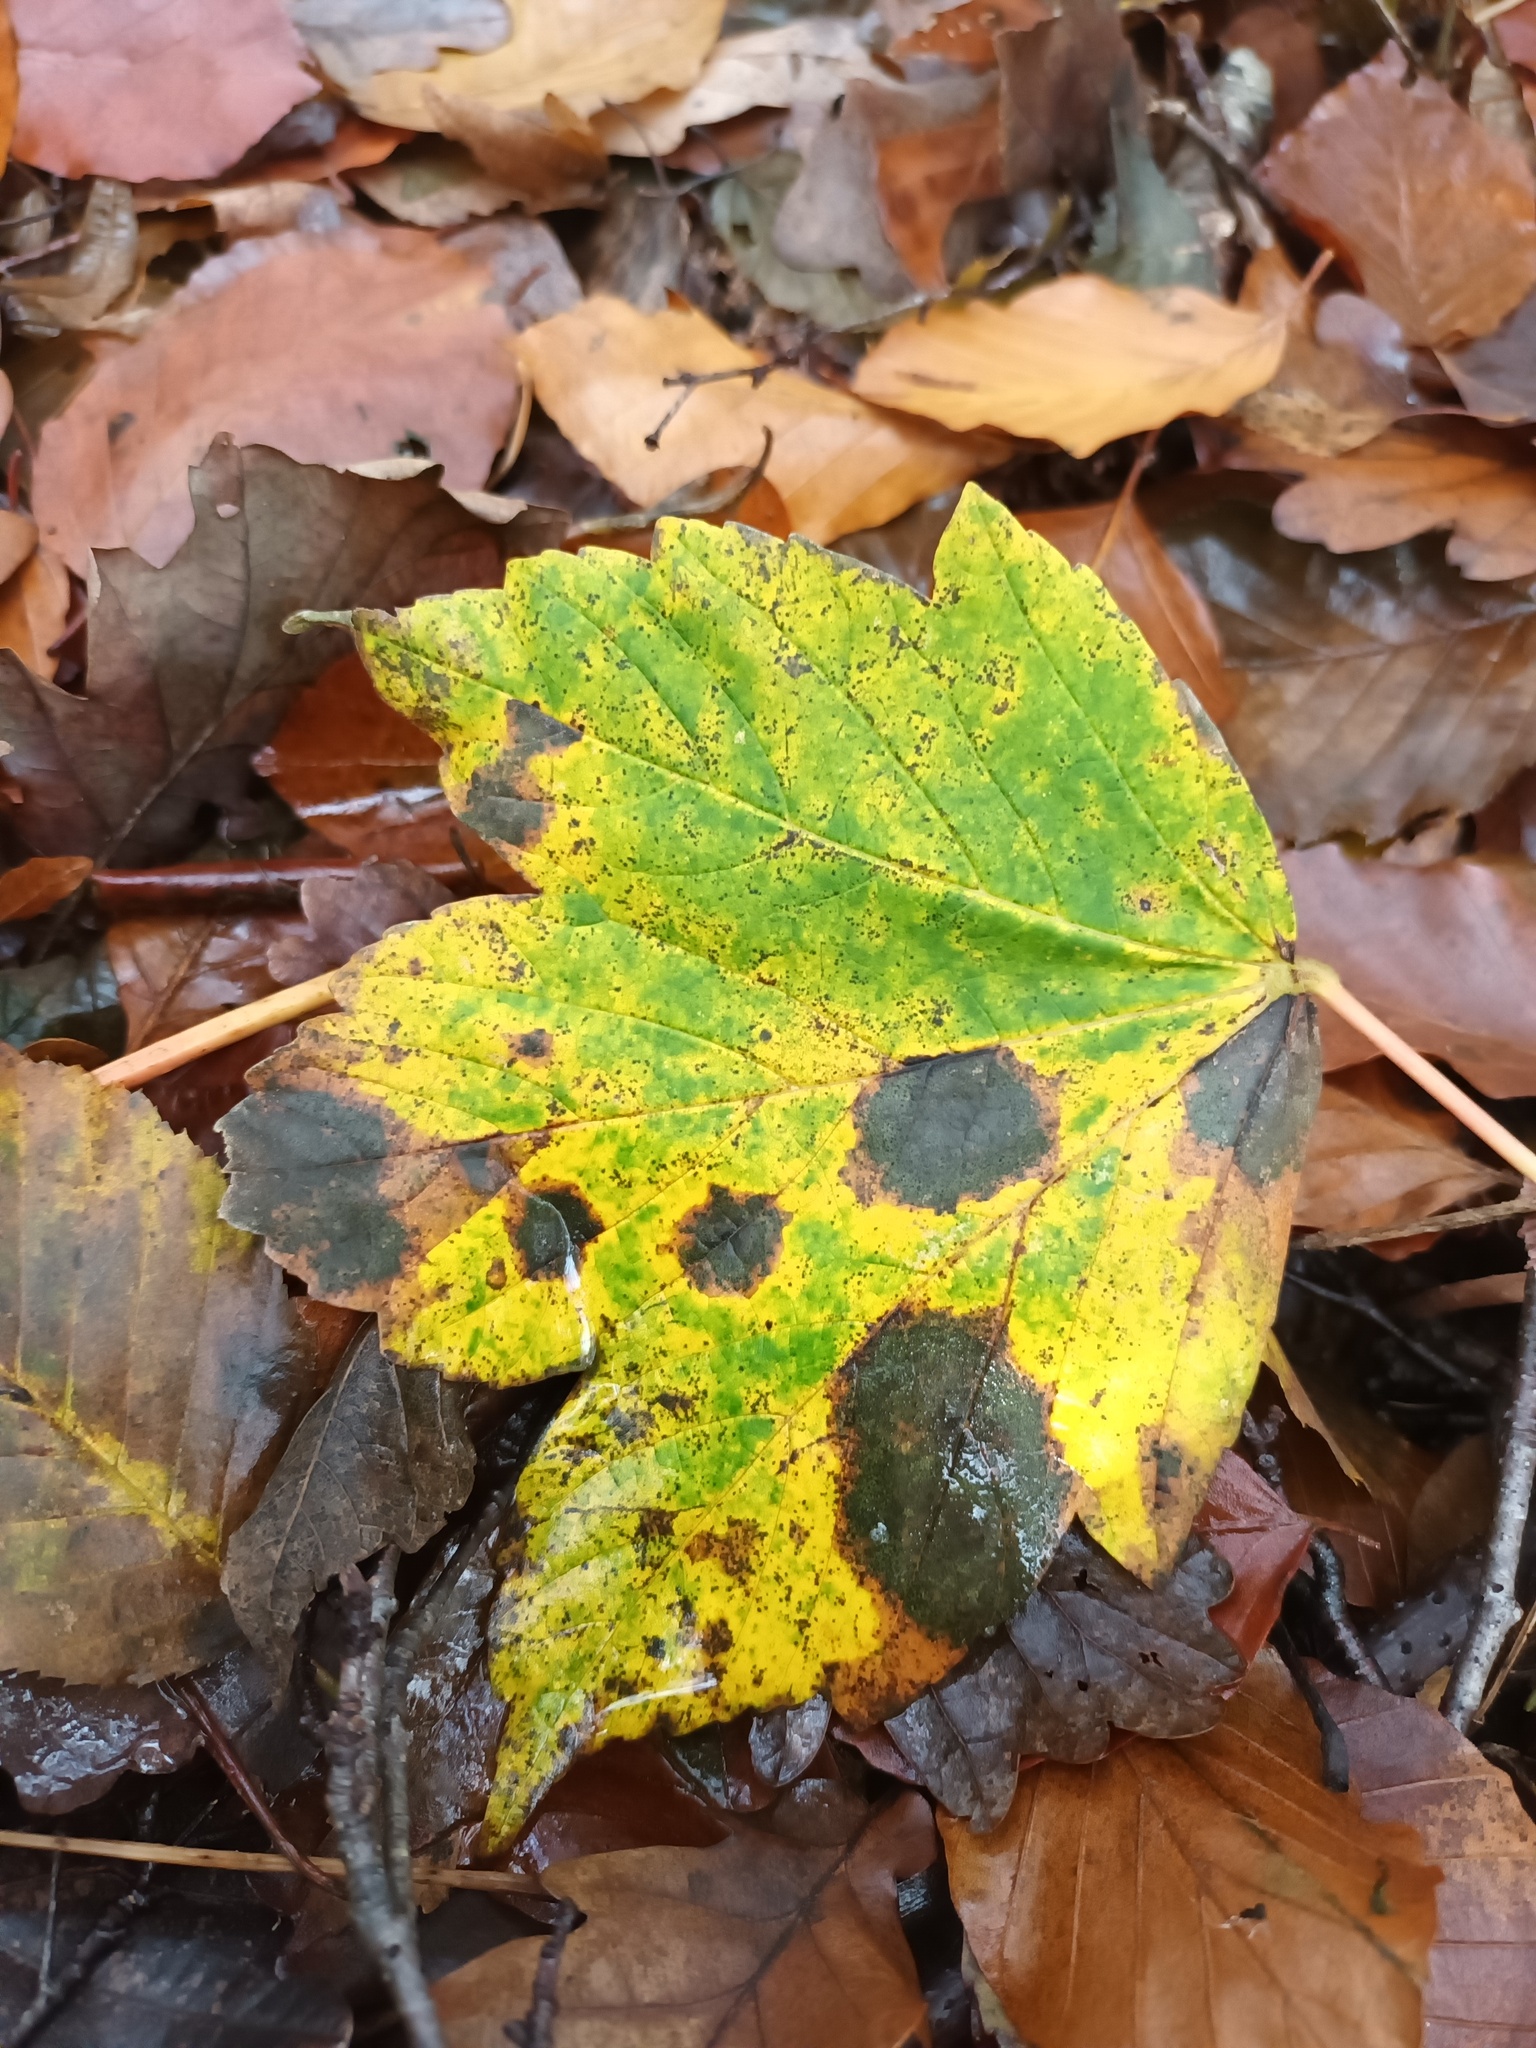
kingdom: Fungi
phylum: Ascomycota
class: Leotiomycetes
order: Rhytismatales
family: Rhytismataceae
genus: Rhytisma
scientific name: Rhytisma acerinum
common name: European tar spot
